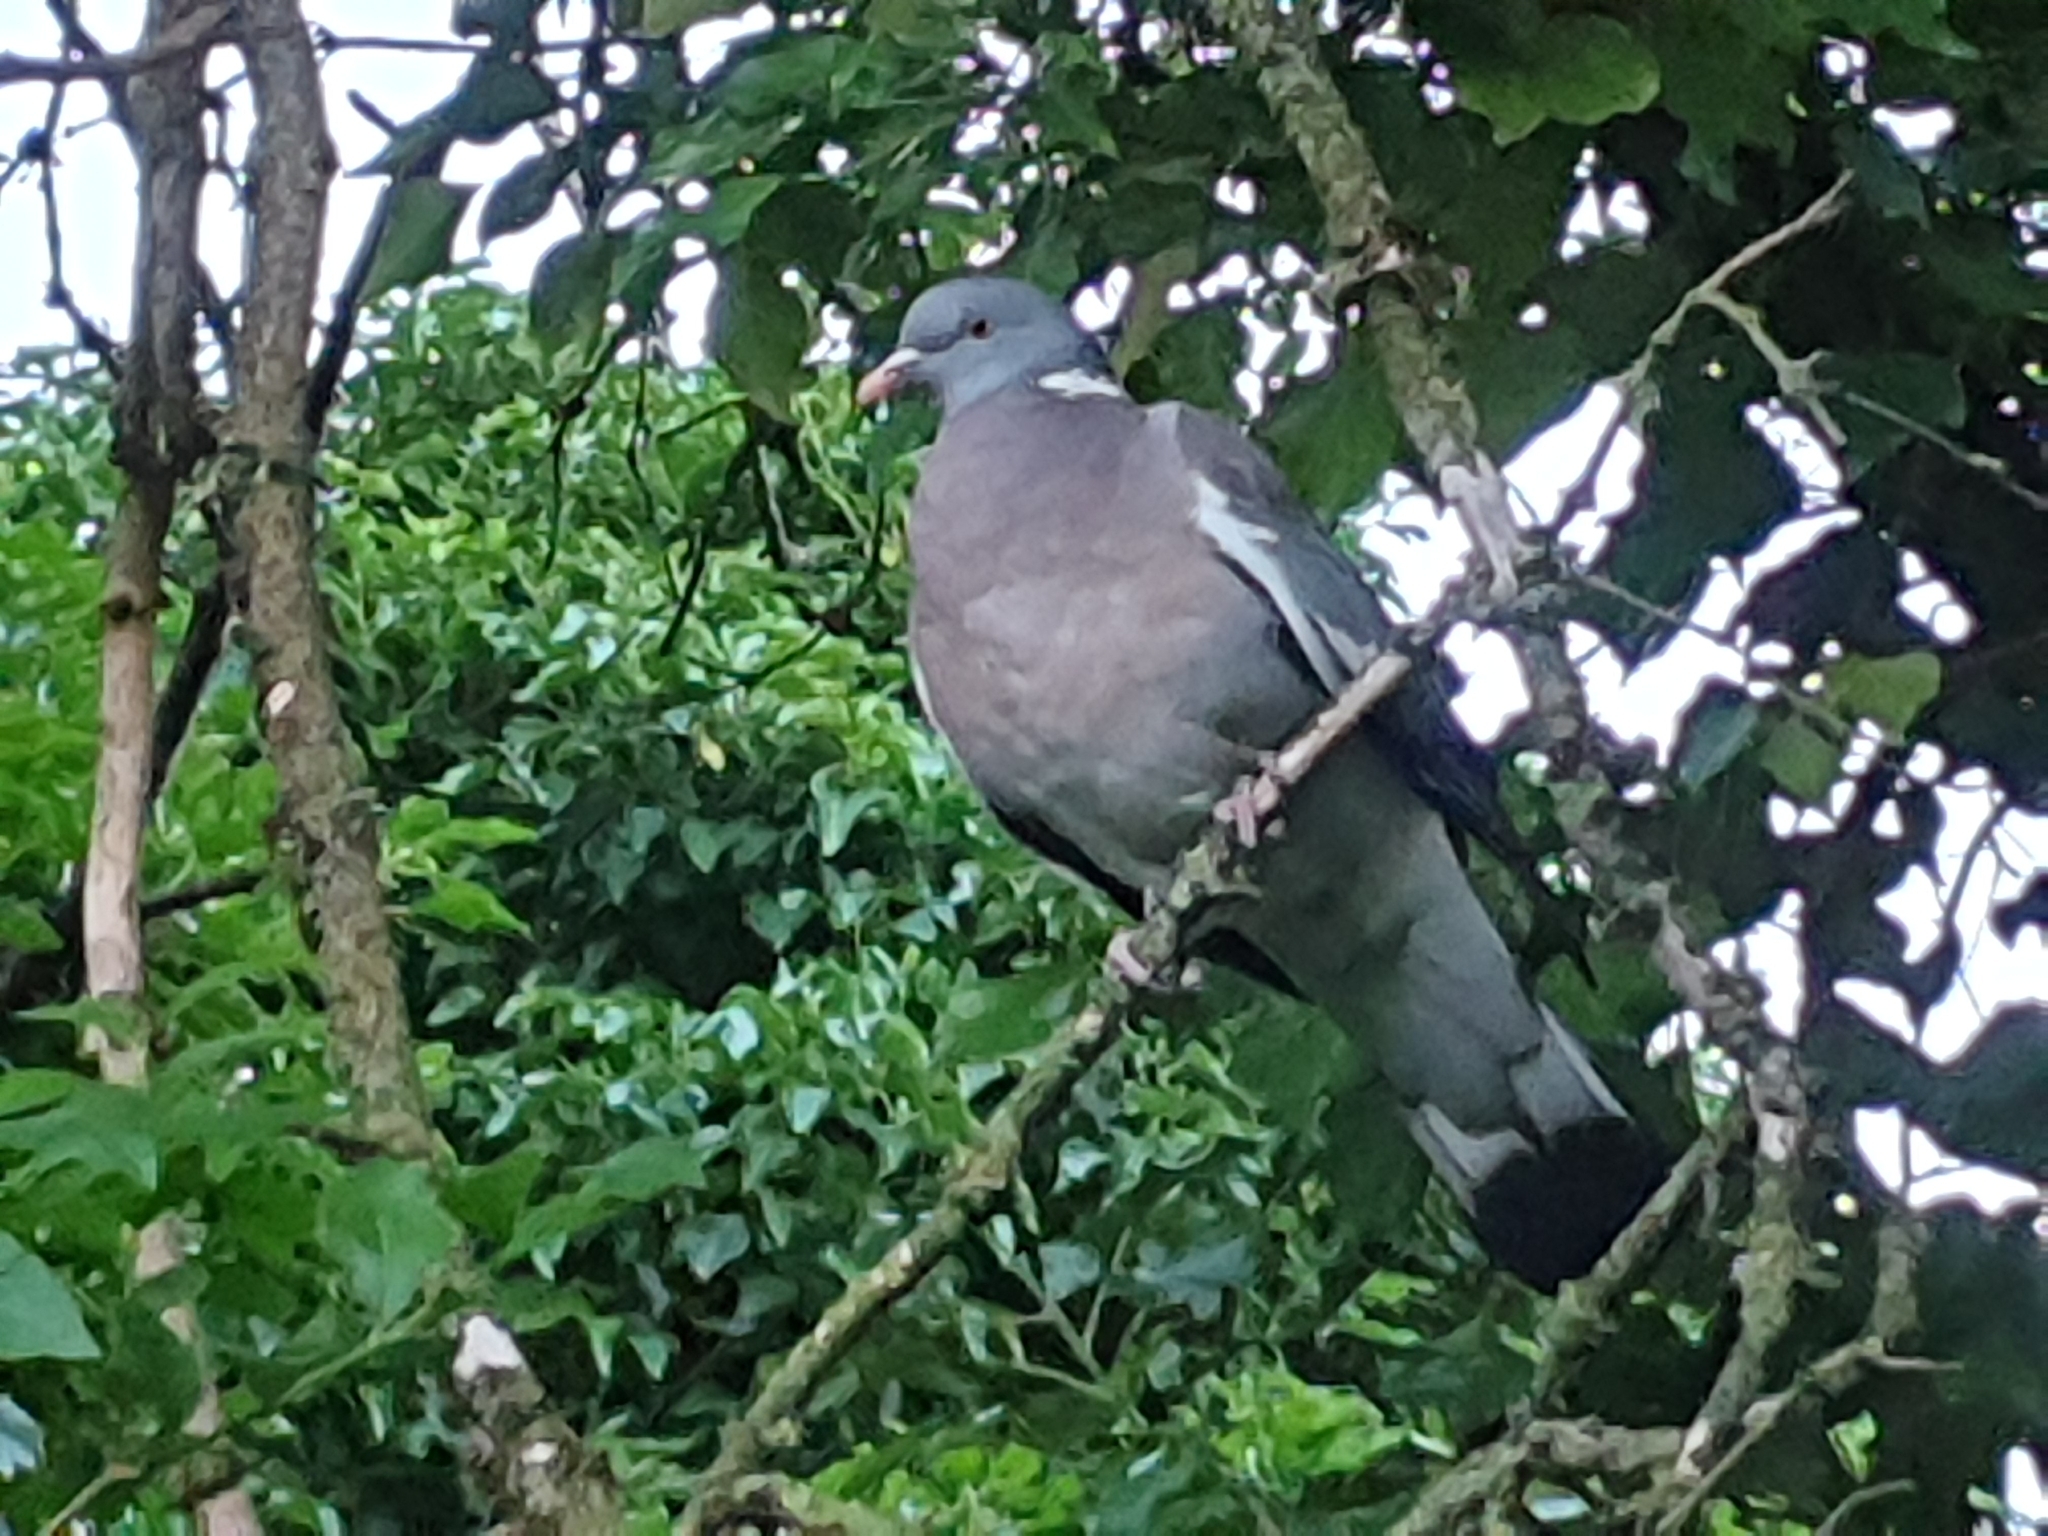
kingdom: Animalia
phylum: Chordata
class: Aves
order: Columbiformes
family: Columbidae
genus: Columba
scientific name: Columba palumbus
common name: Common wood pigeon
